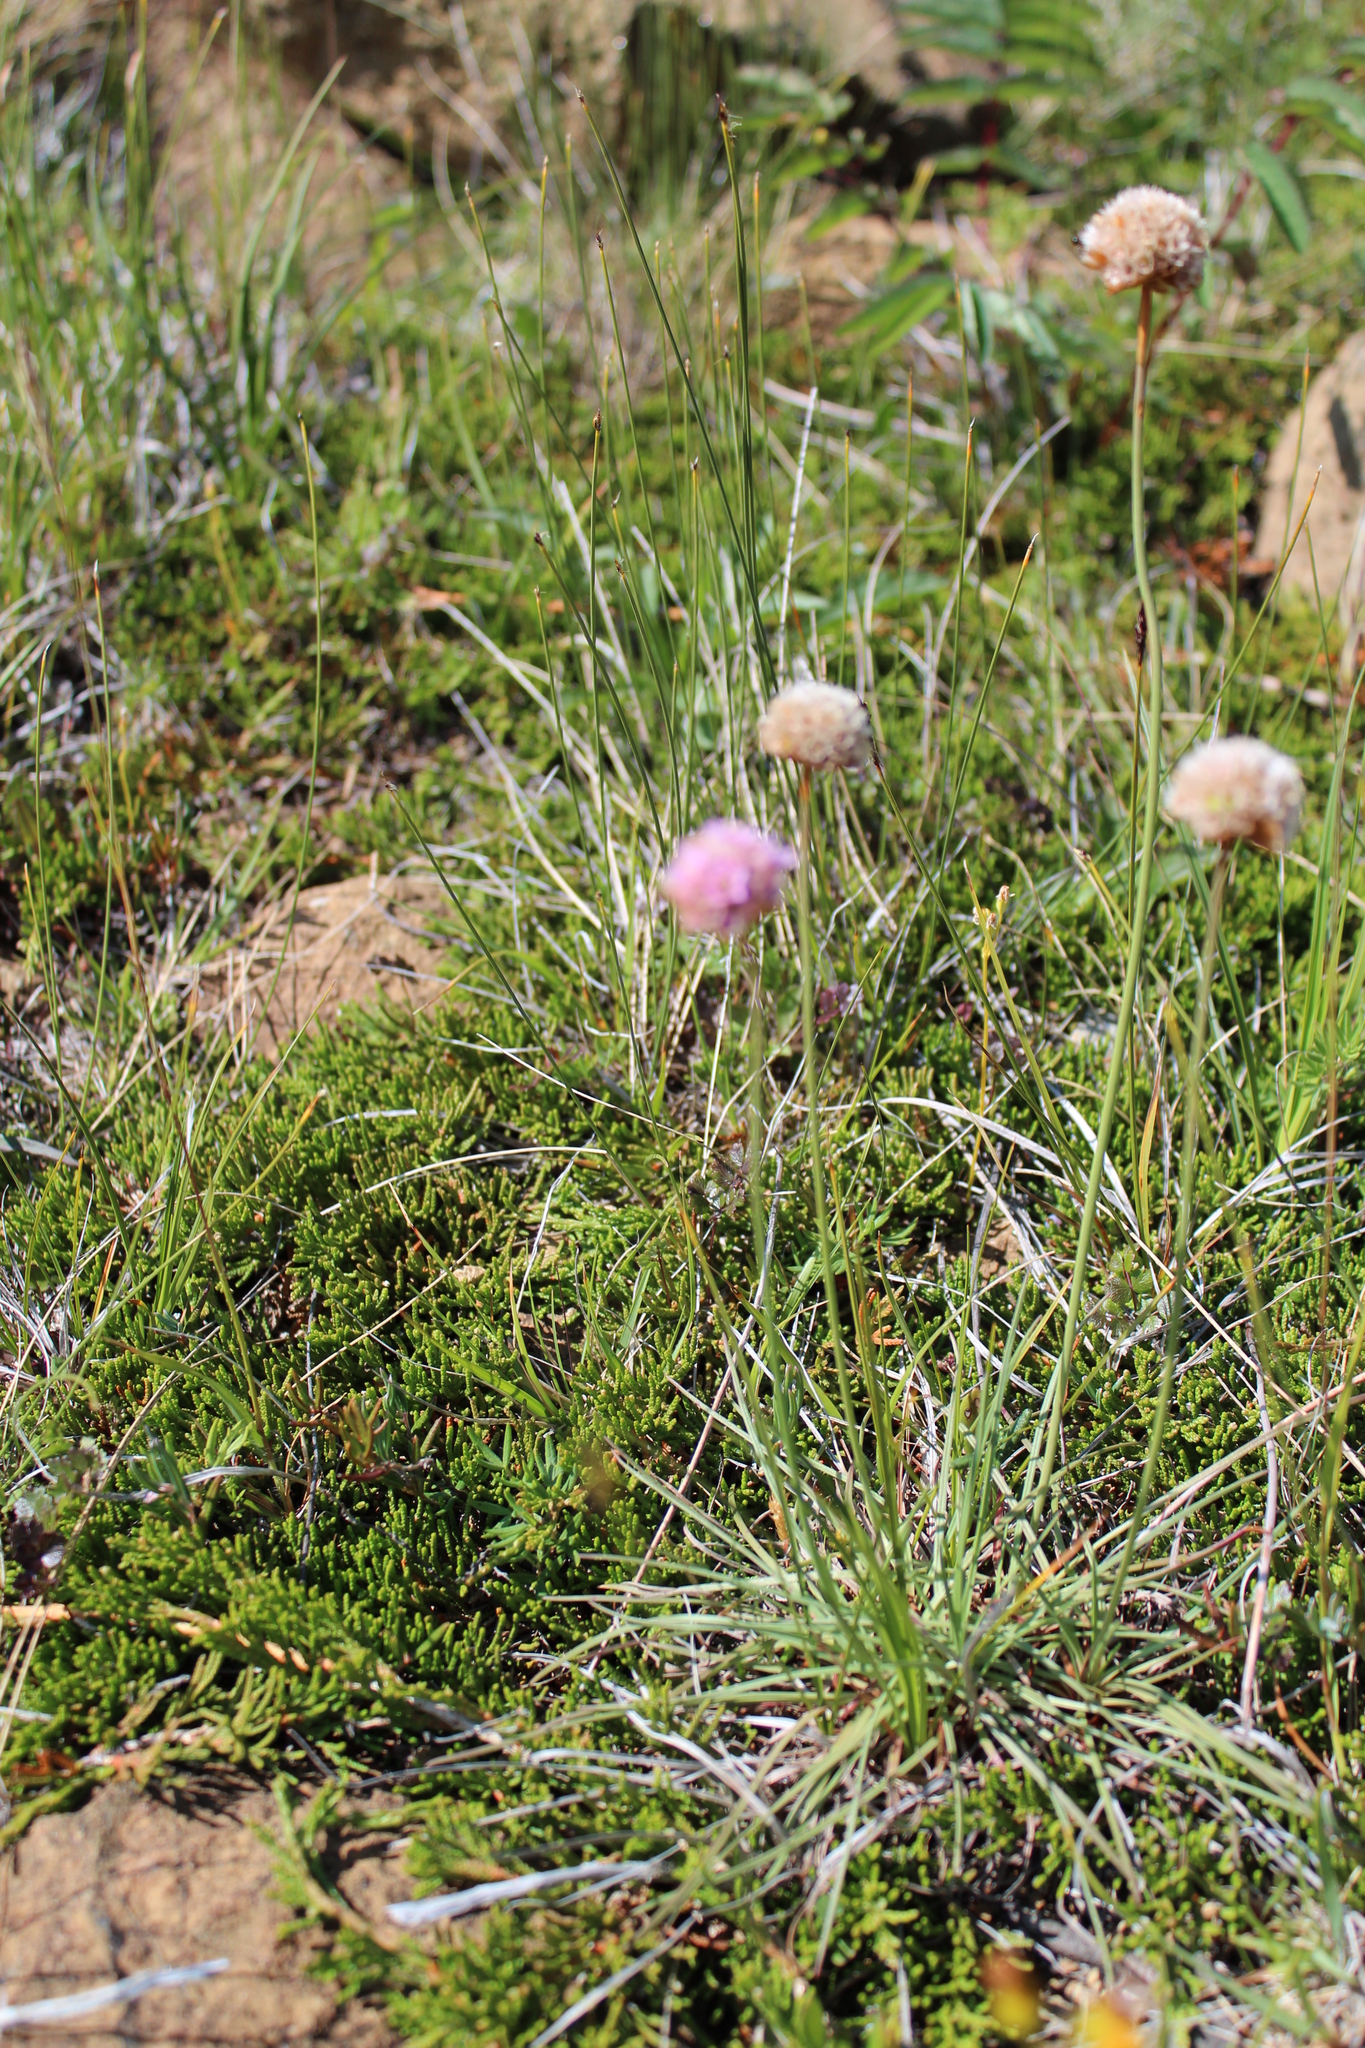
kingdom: Plantae
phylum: Tracheophyta
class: Magnoliopsida
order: Caryophyllales
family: Plumbaginaceae
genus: Armeria
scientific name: Armeria maritima
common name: Thrift
